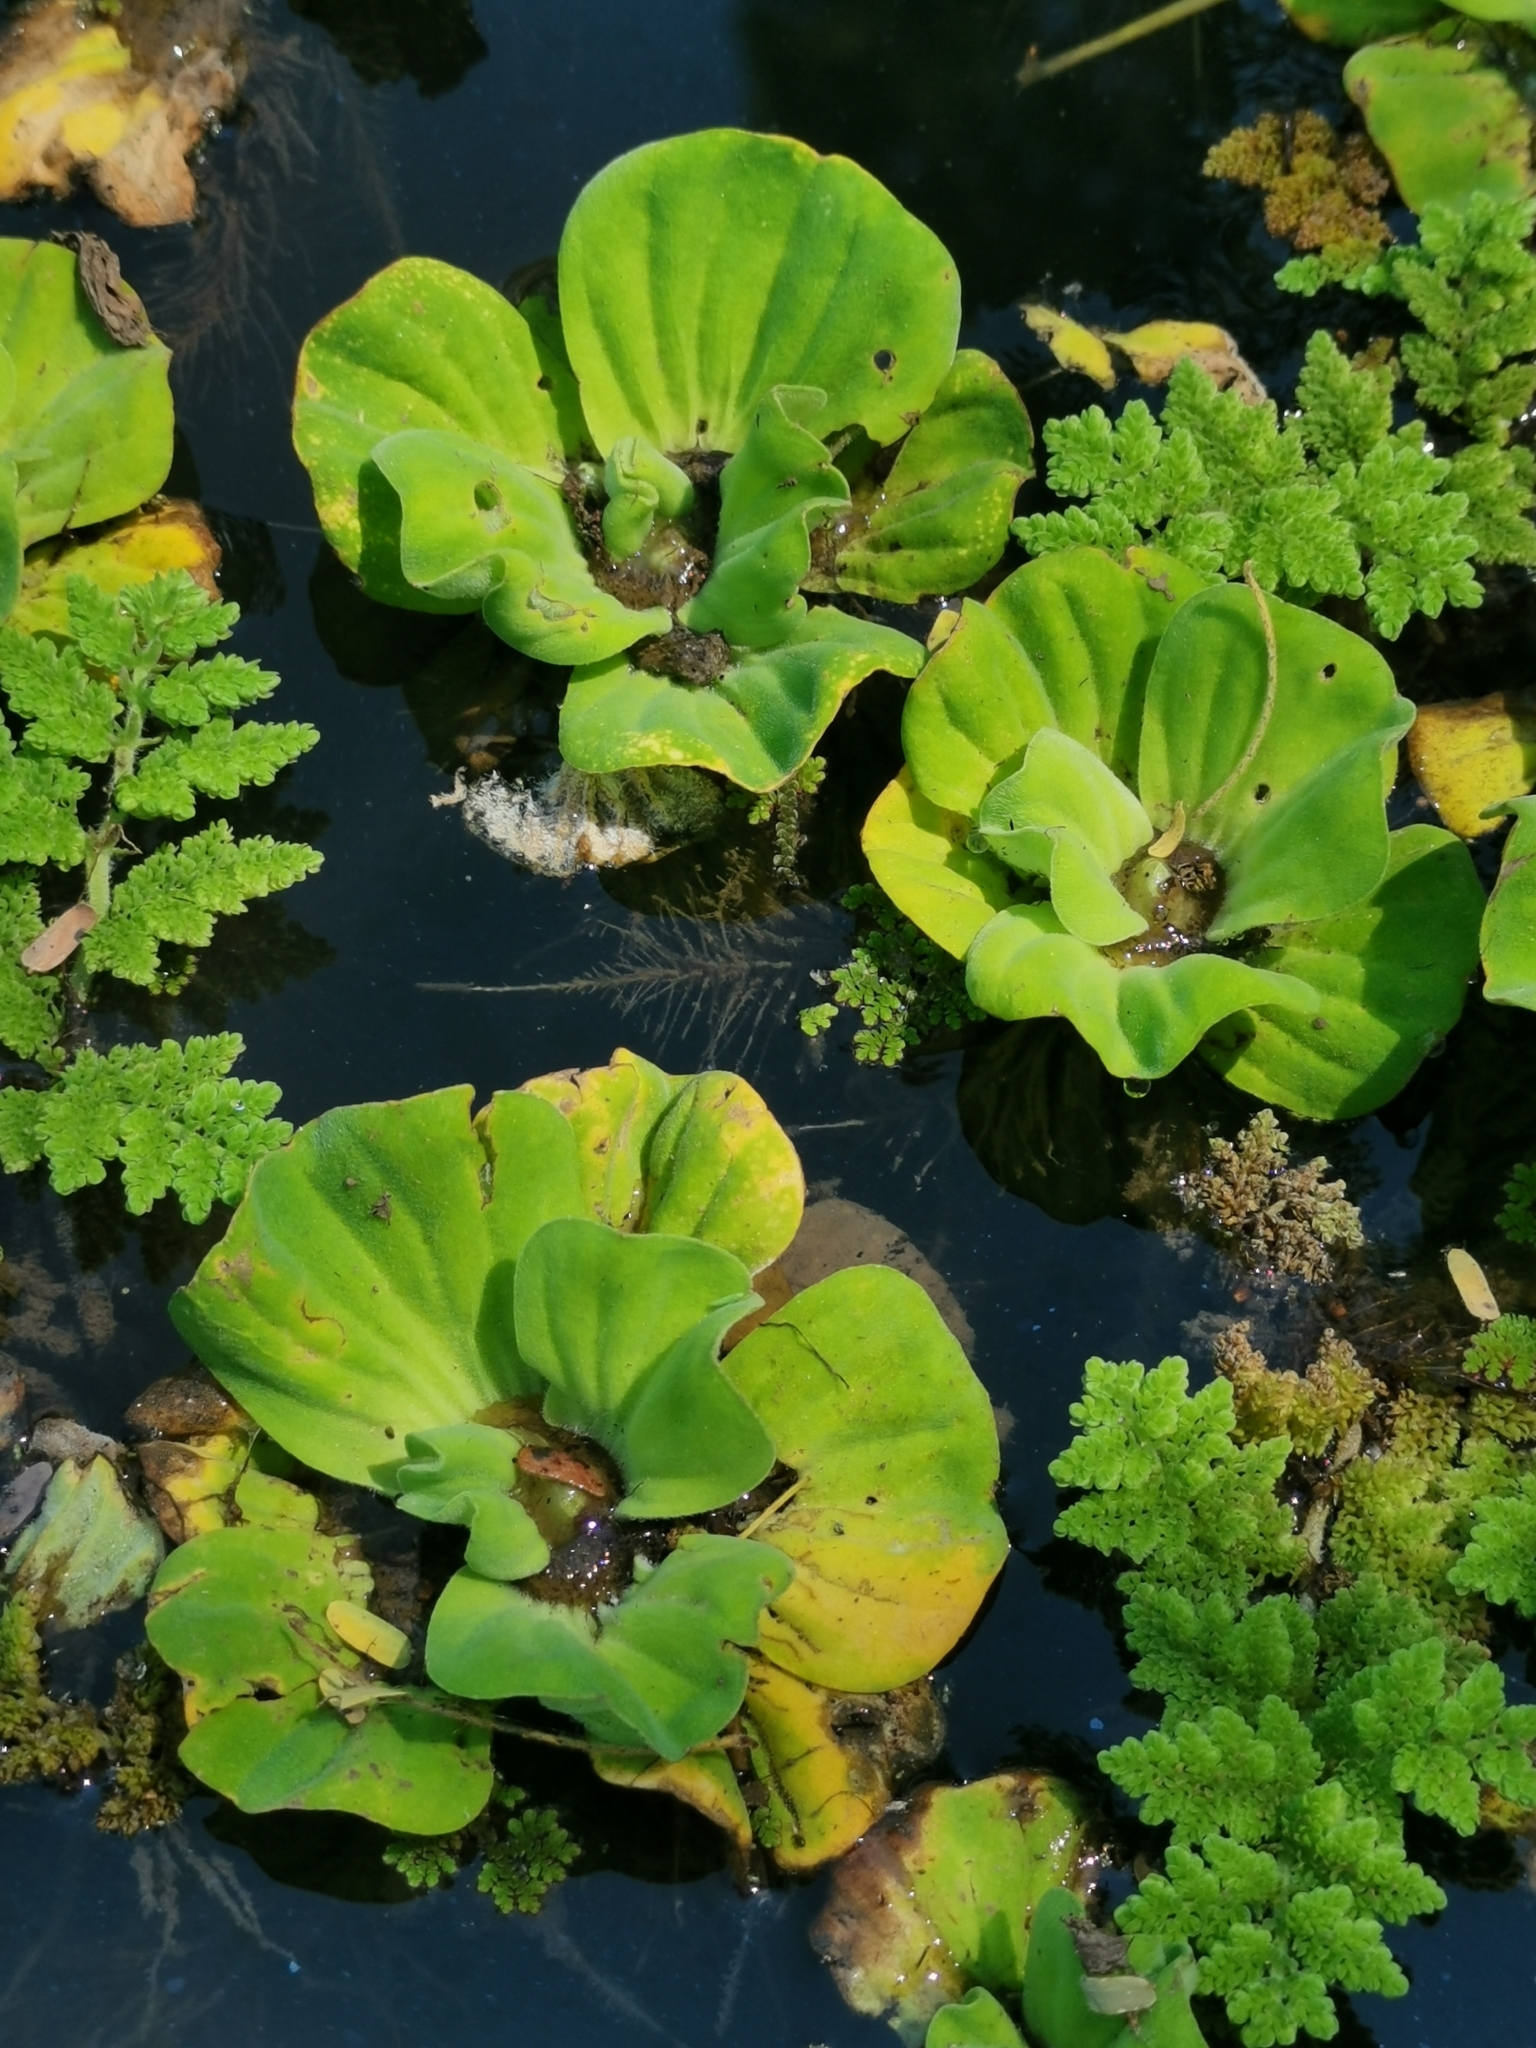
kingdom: Plantae
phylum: Tracheophyta
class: Liliopsida
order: Alismatales
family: Araceae
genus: Pistia
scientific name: Pistia stratiotes
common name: Water lettuce
